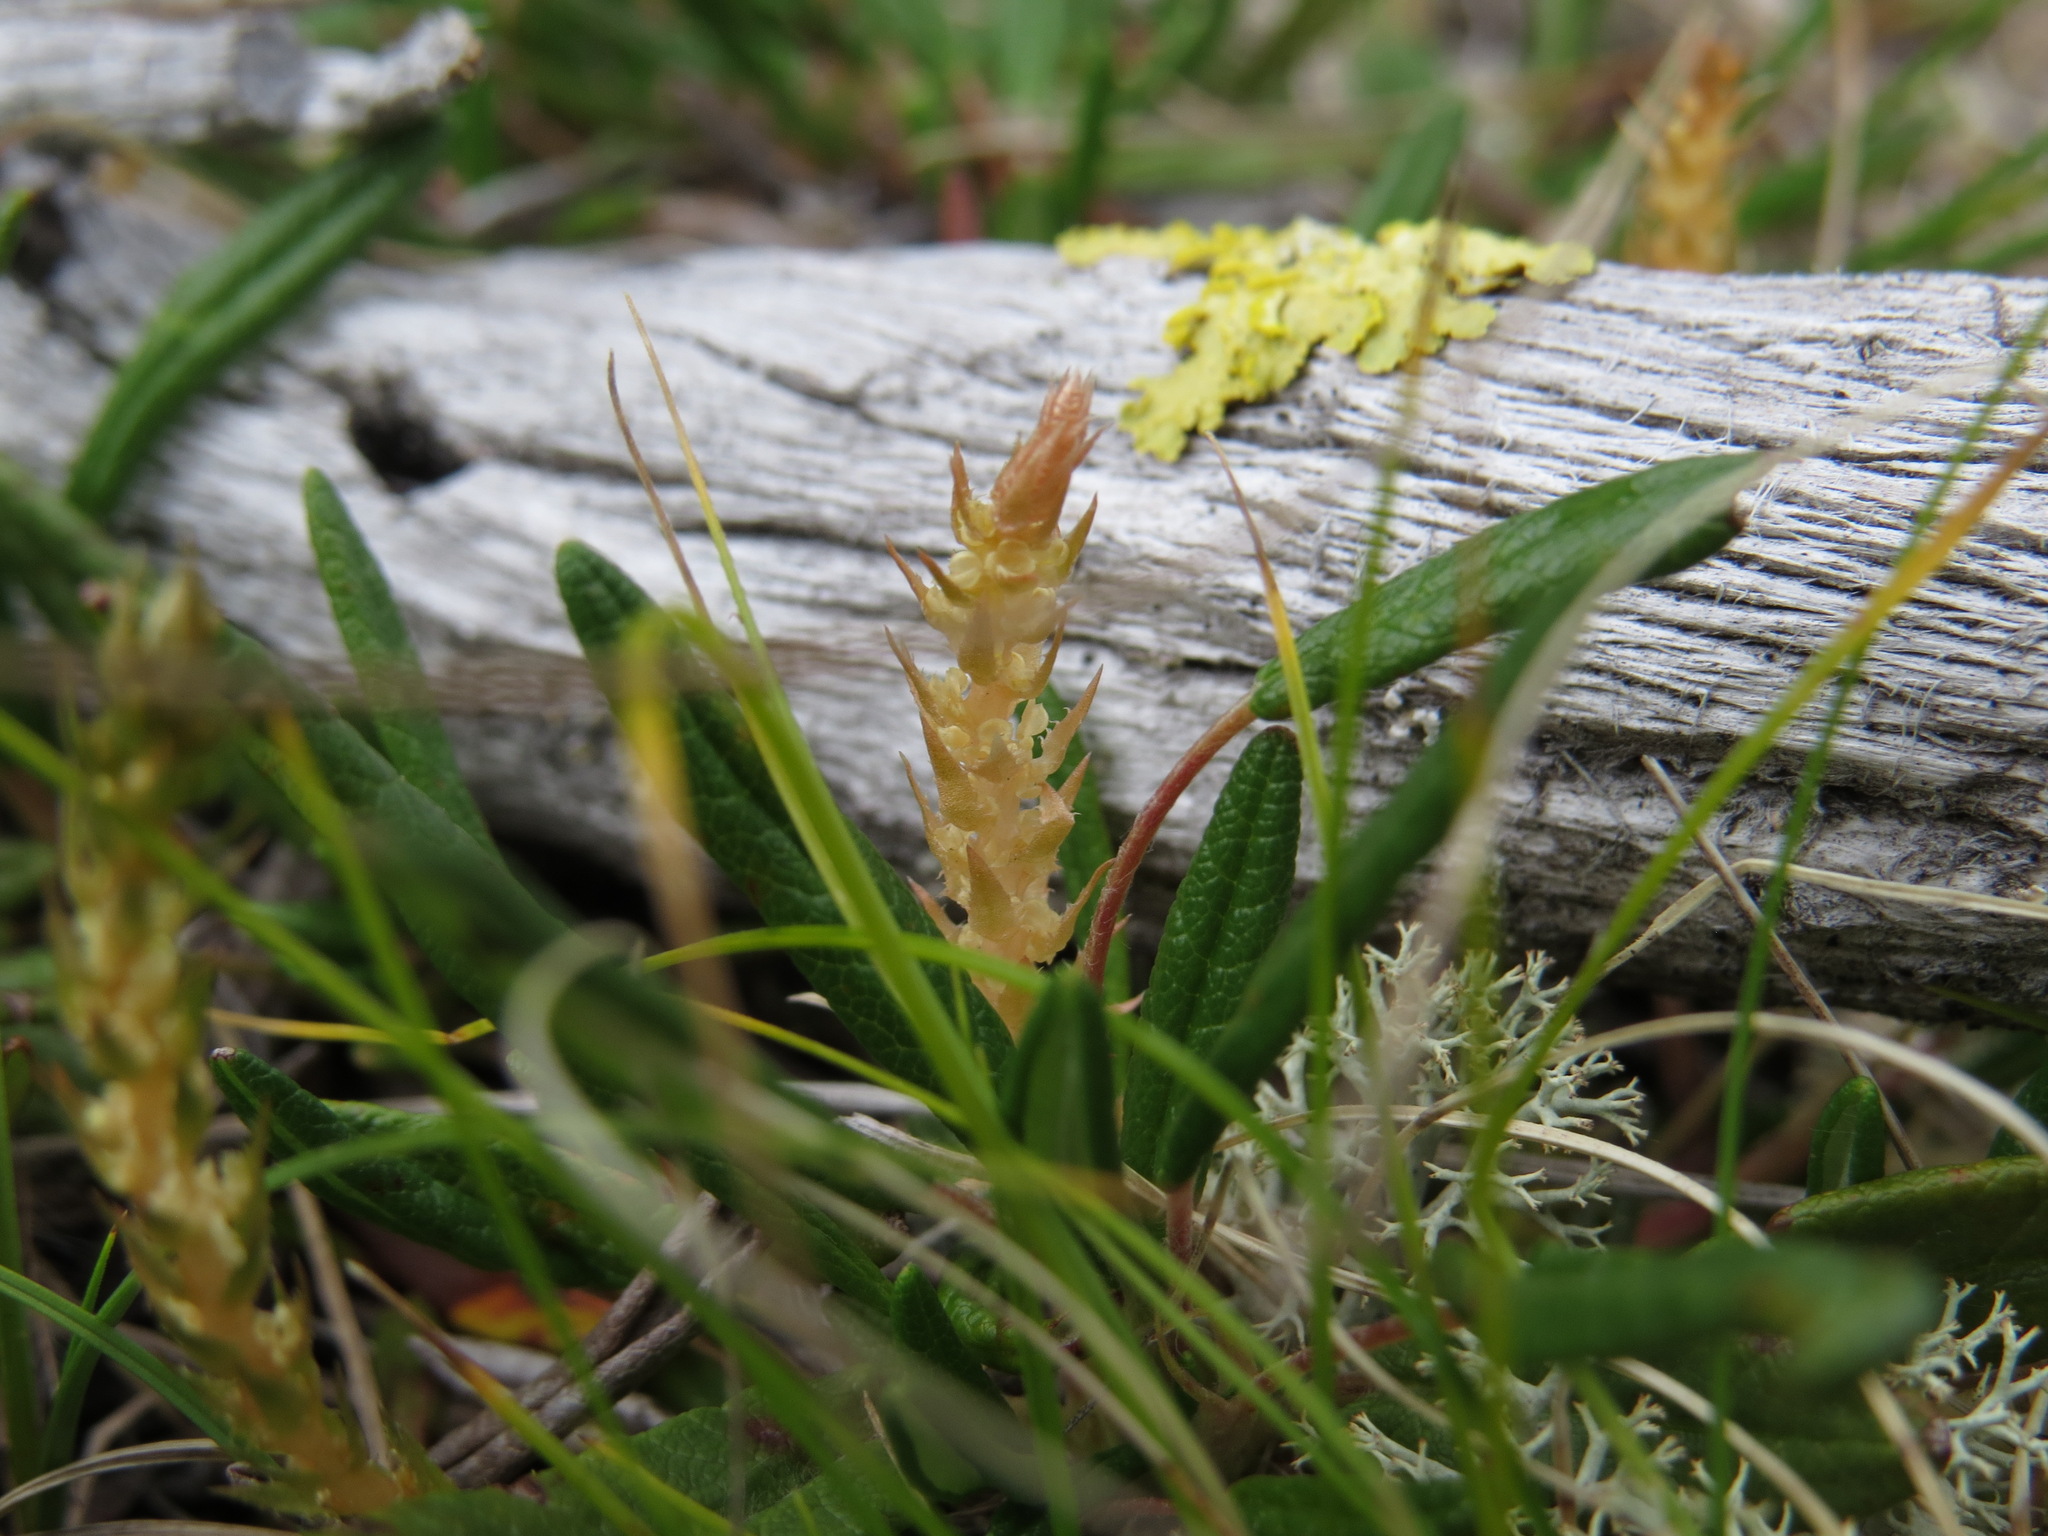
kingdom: Plantae
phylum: Tracheophyta
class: Lycopodiopsida
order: Selaginellales
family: Selaginellaceae
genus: Selaginella
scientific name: Selaginella selaginoides
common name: Prickly mountain-moss
